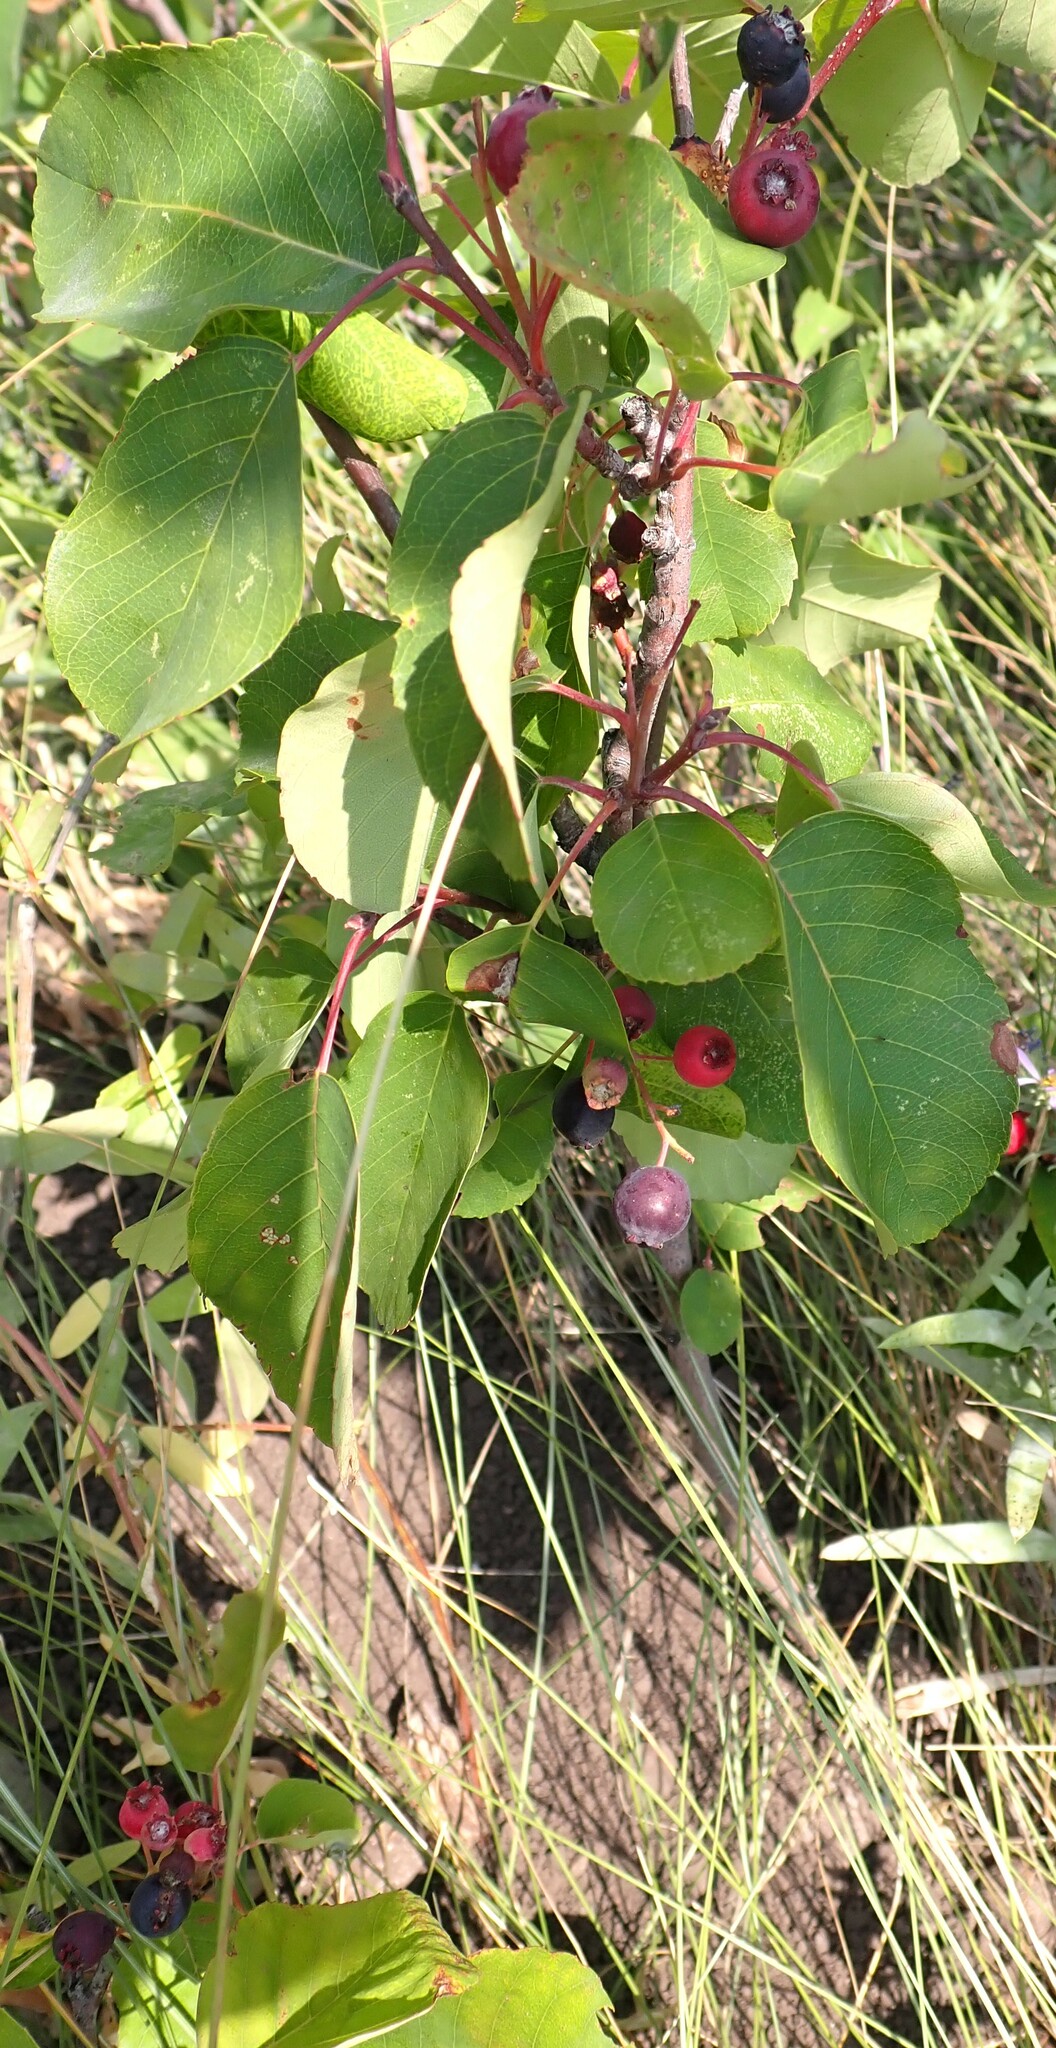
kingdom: Plantae
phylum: Tracheophyta
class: Magnoliopsida
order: Rosales
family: Rosaceae
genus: Amelanchier
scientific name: Amelanchier alnifolia
